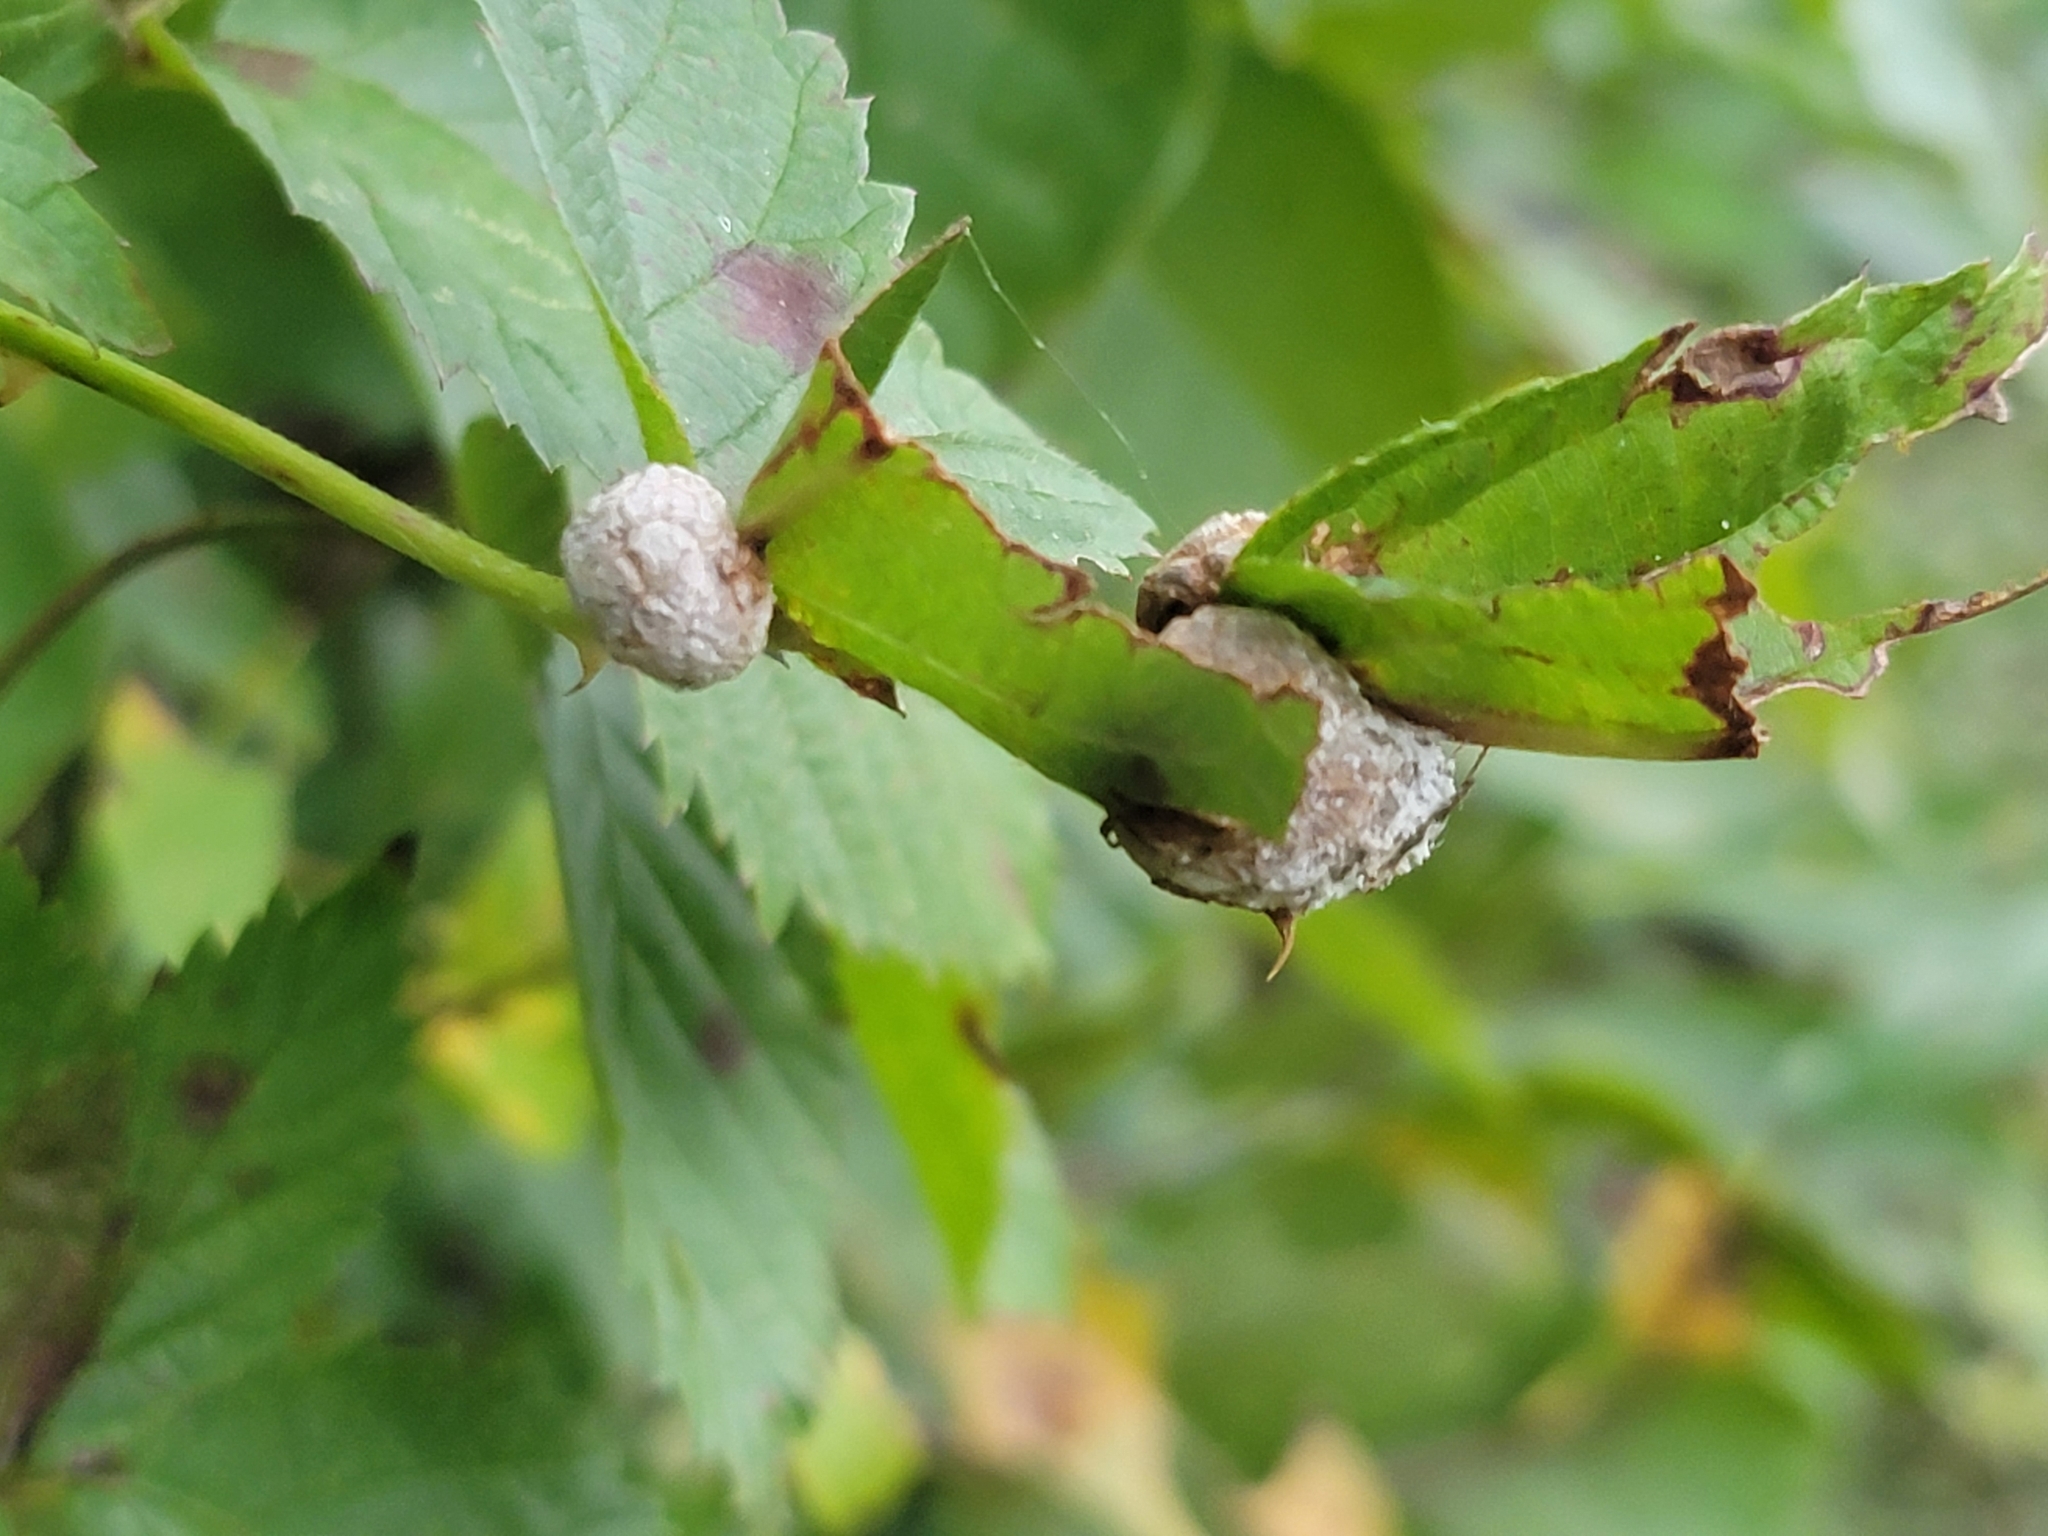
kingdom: Animalia
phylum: Arthropoda
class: Insecta
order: Diptera
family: Cecidomyiidae
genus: Neolasioptera
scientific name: Neolasioptera farinosa
